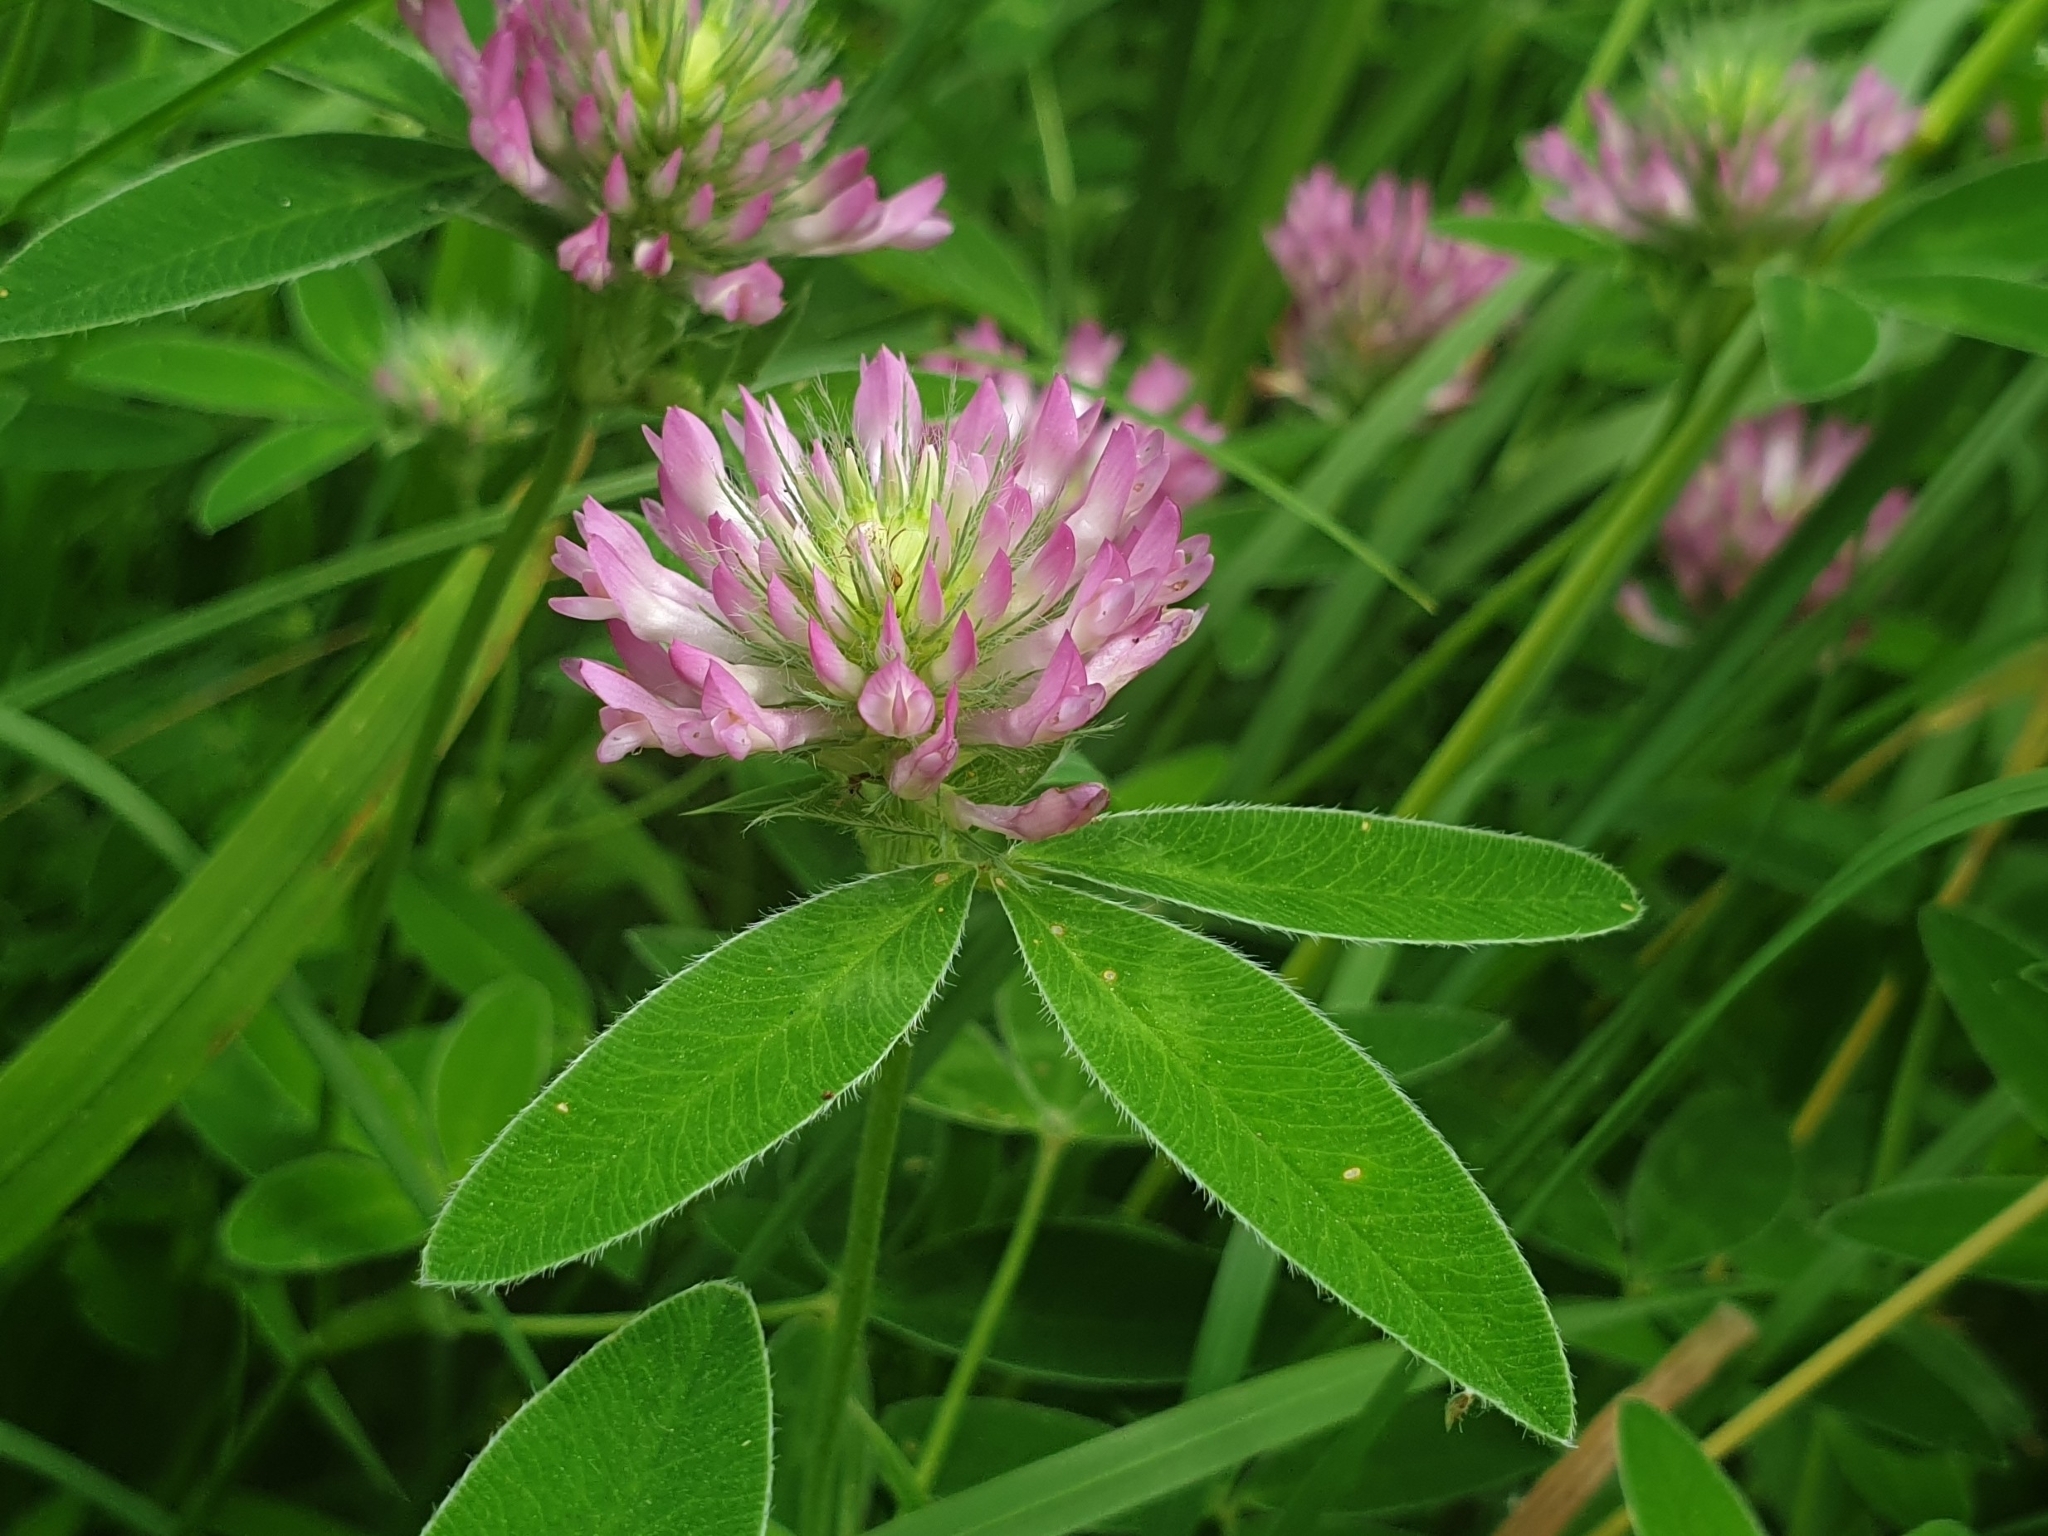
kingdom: Plantae
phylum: Tracheophyta
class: Magnoliopsida
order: Fabales
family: Fabaceae
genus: Trifolium
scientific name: Trifolium medium
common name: Zigzag clover
